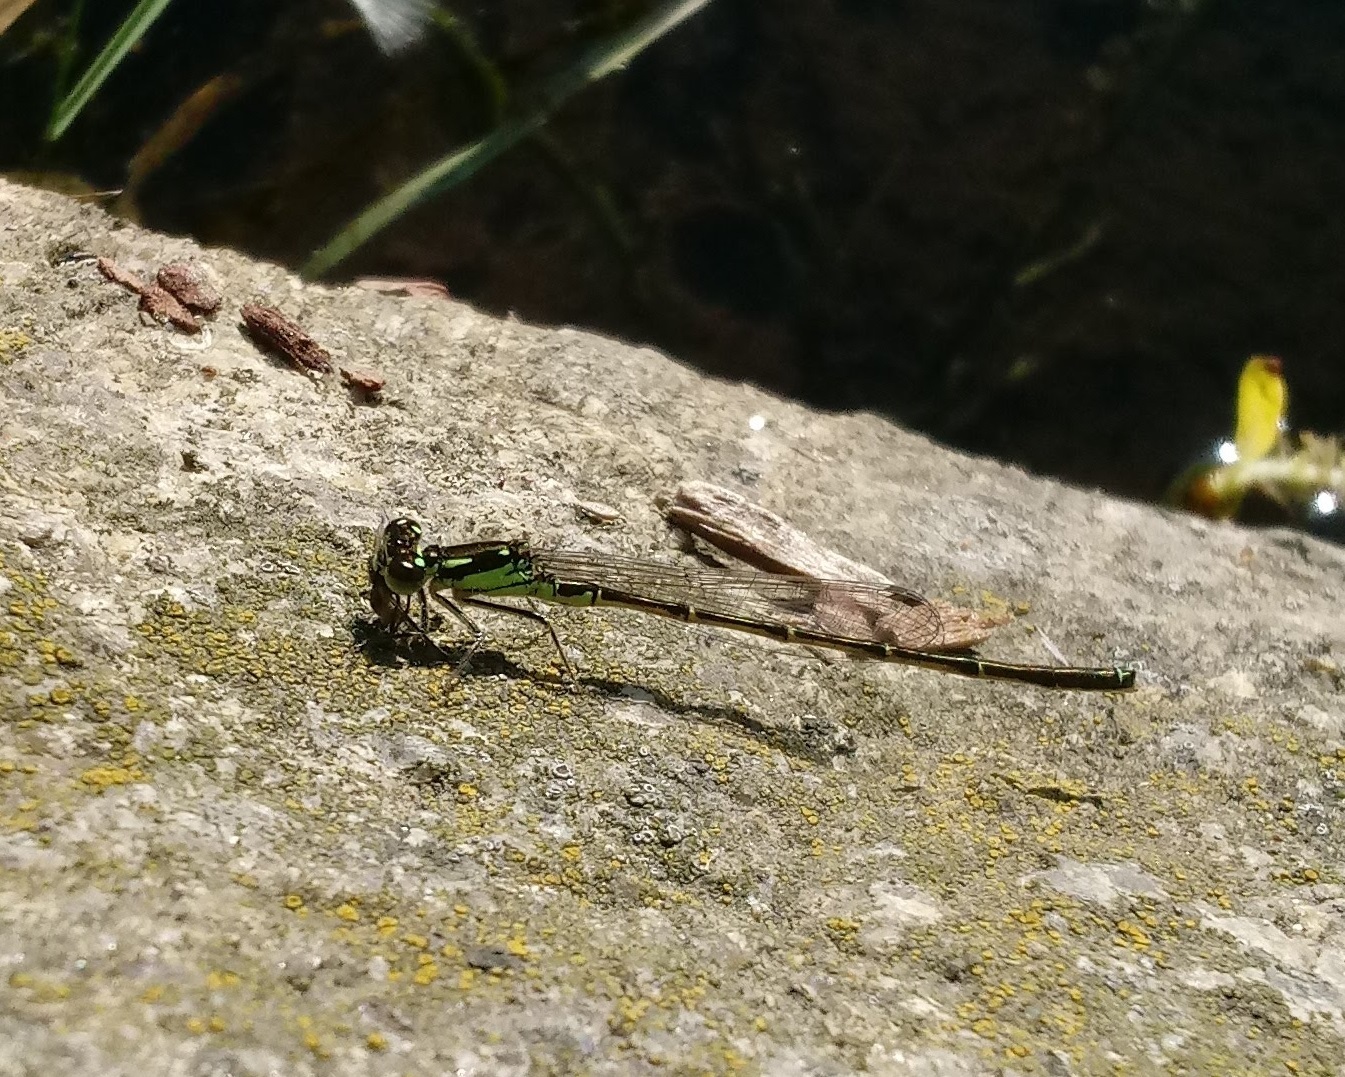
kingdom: Animalia
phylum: Arthropoda
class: Insecta
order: Odonata
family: Coenagrionidae
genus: Ischnura
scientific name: Ischnura posita
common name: Fragile forktail
